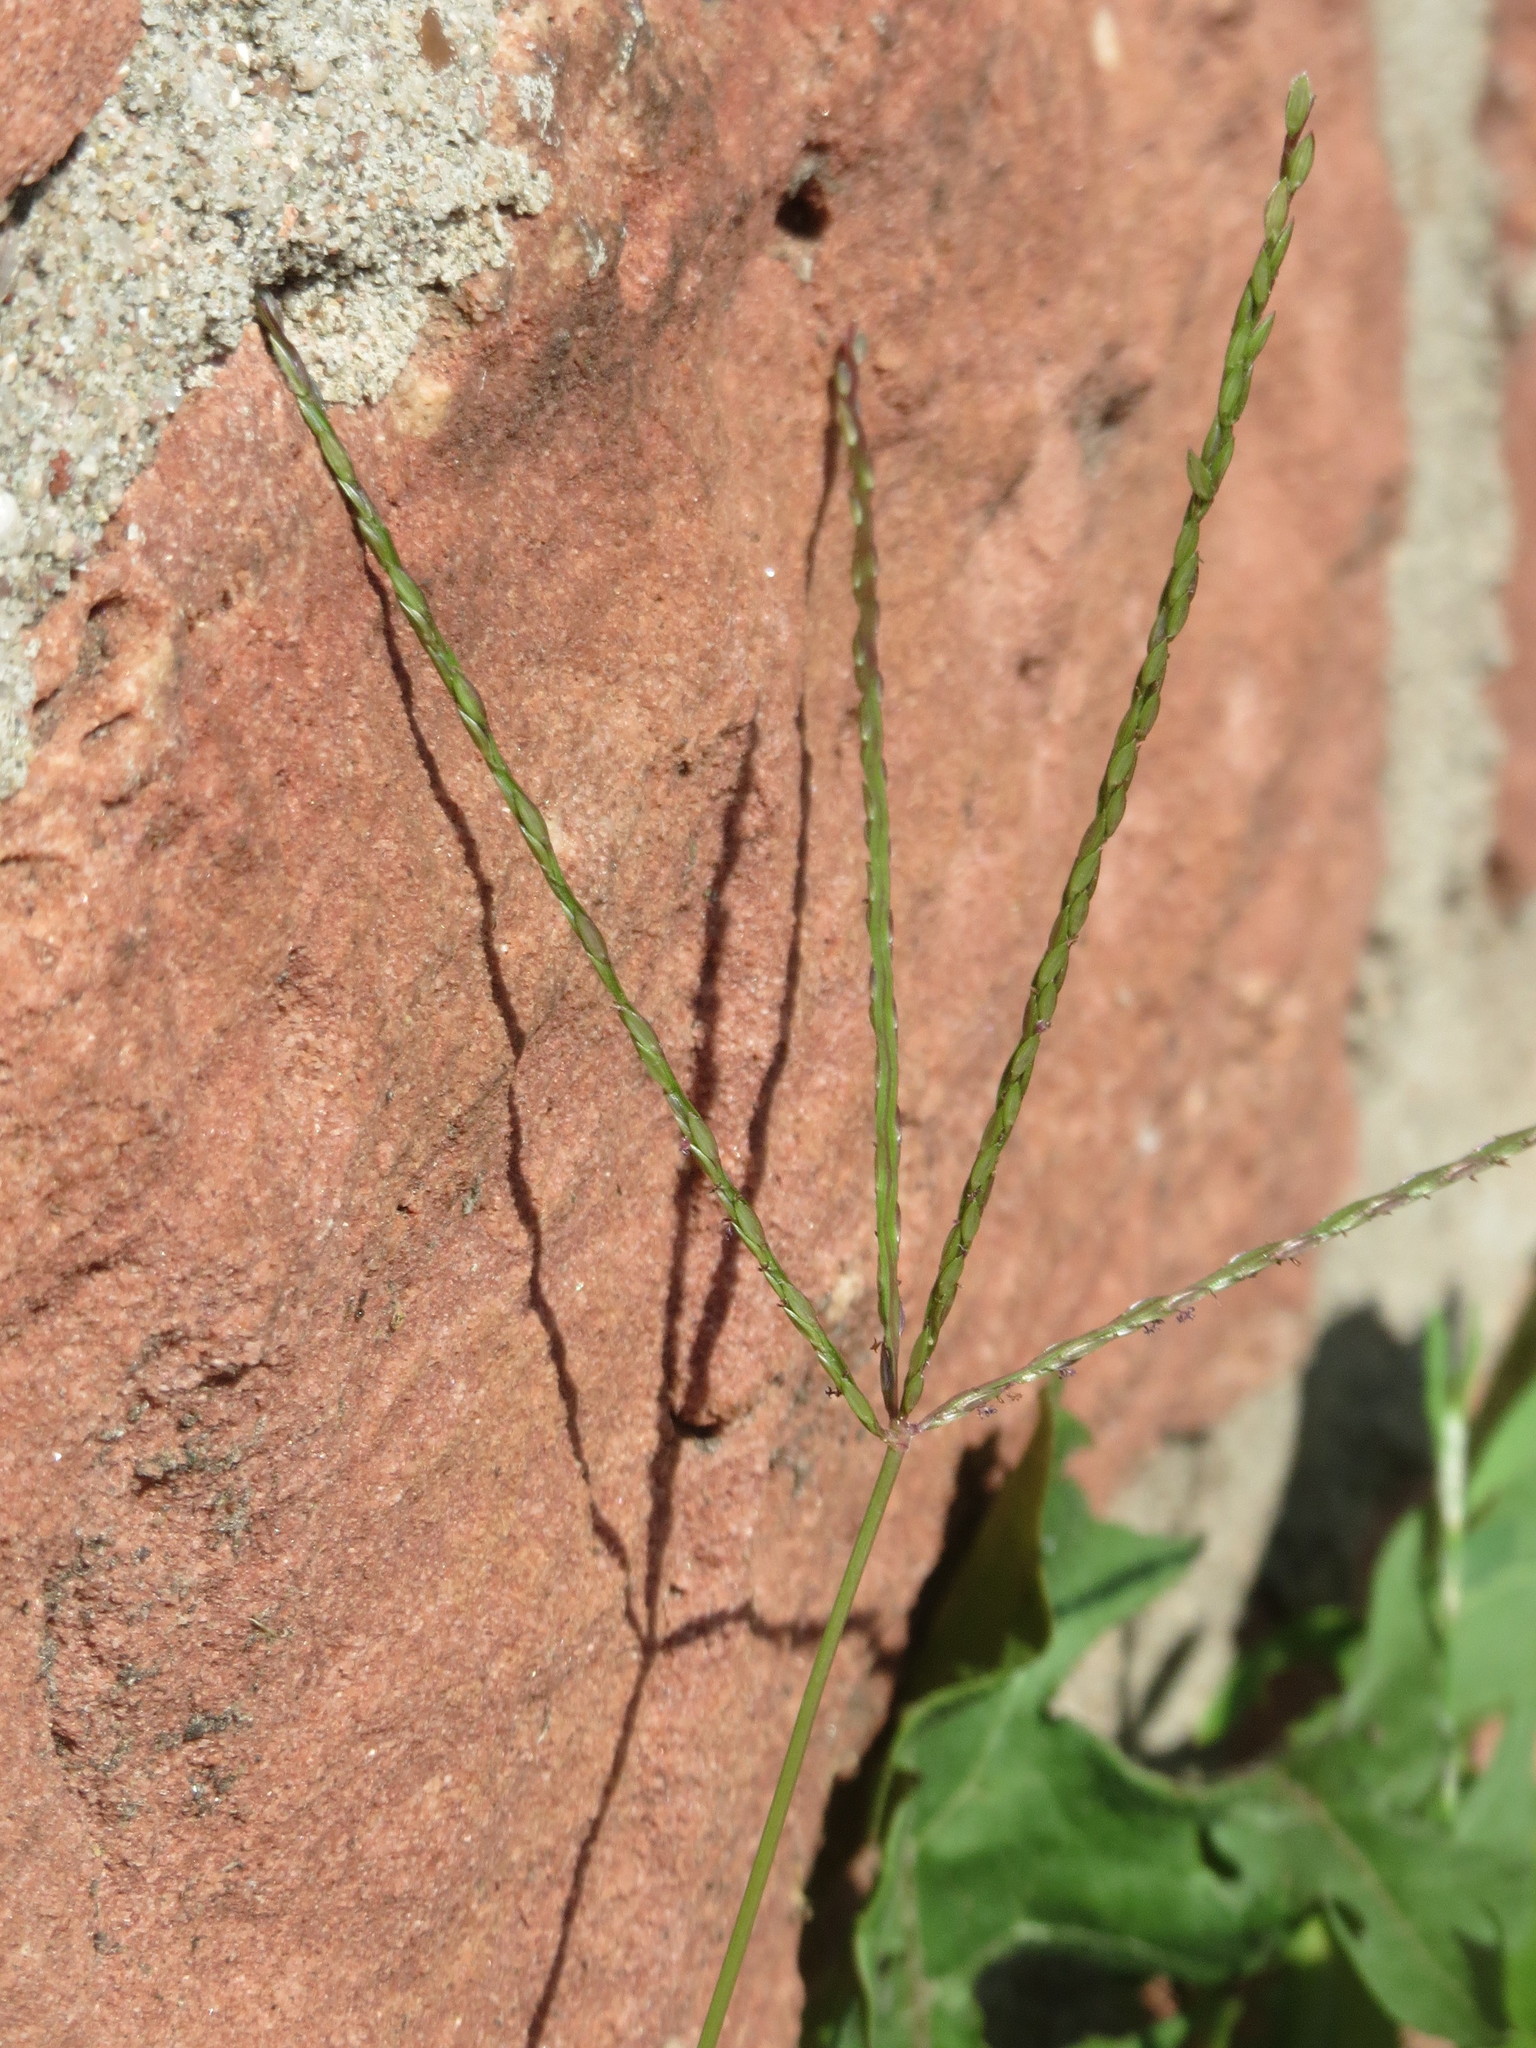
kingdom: Plantae
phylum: Tracheophyta
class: Liliopsida
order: Poales
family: Poaceae
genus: Digitaria
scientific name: Digitaria sanguinalis
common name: Hairy crabgrass
